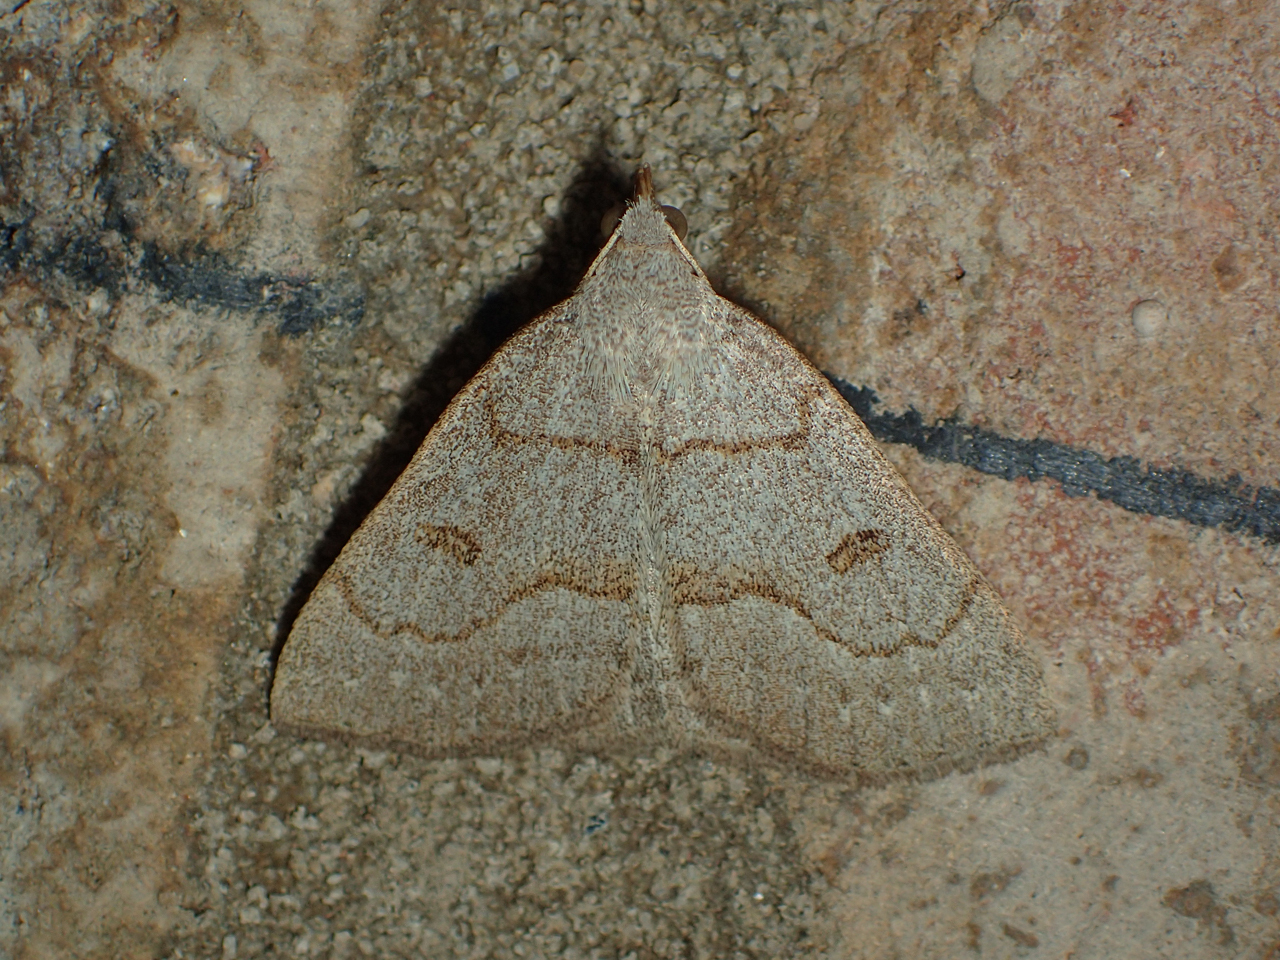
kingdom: Animalia
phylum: Arthropoda
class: Insecta
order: Lepidoptera
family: Erebidae
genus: Macrochilo
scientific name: Macrochilo morbidalis
